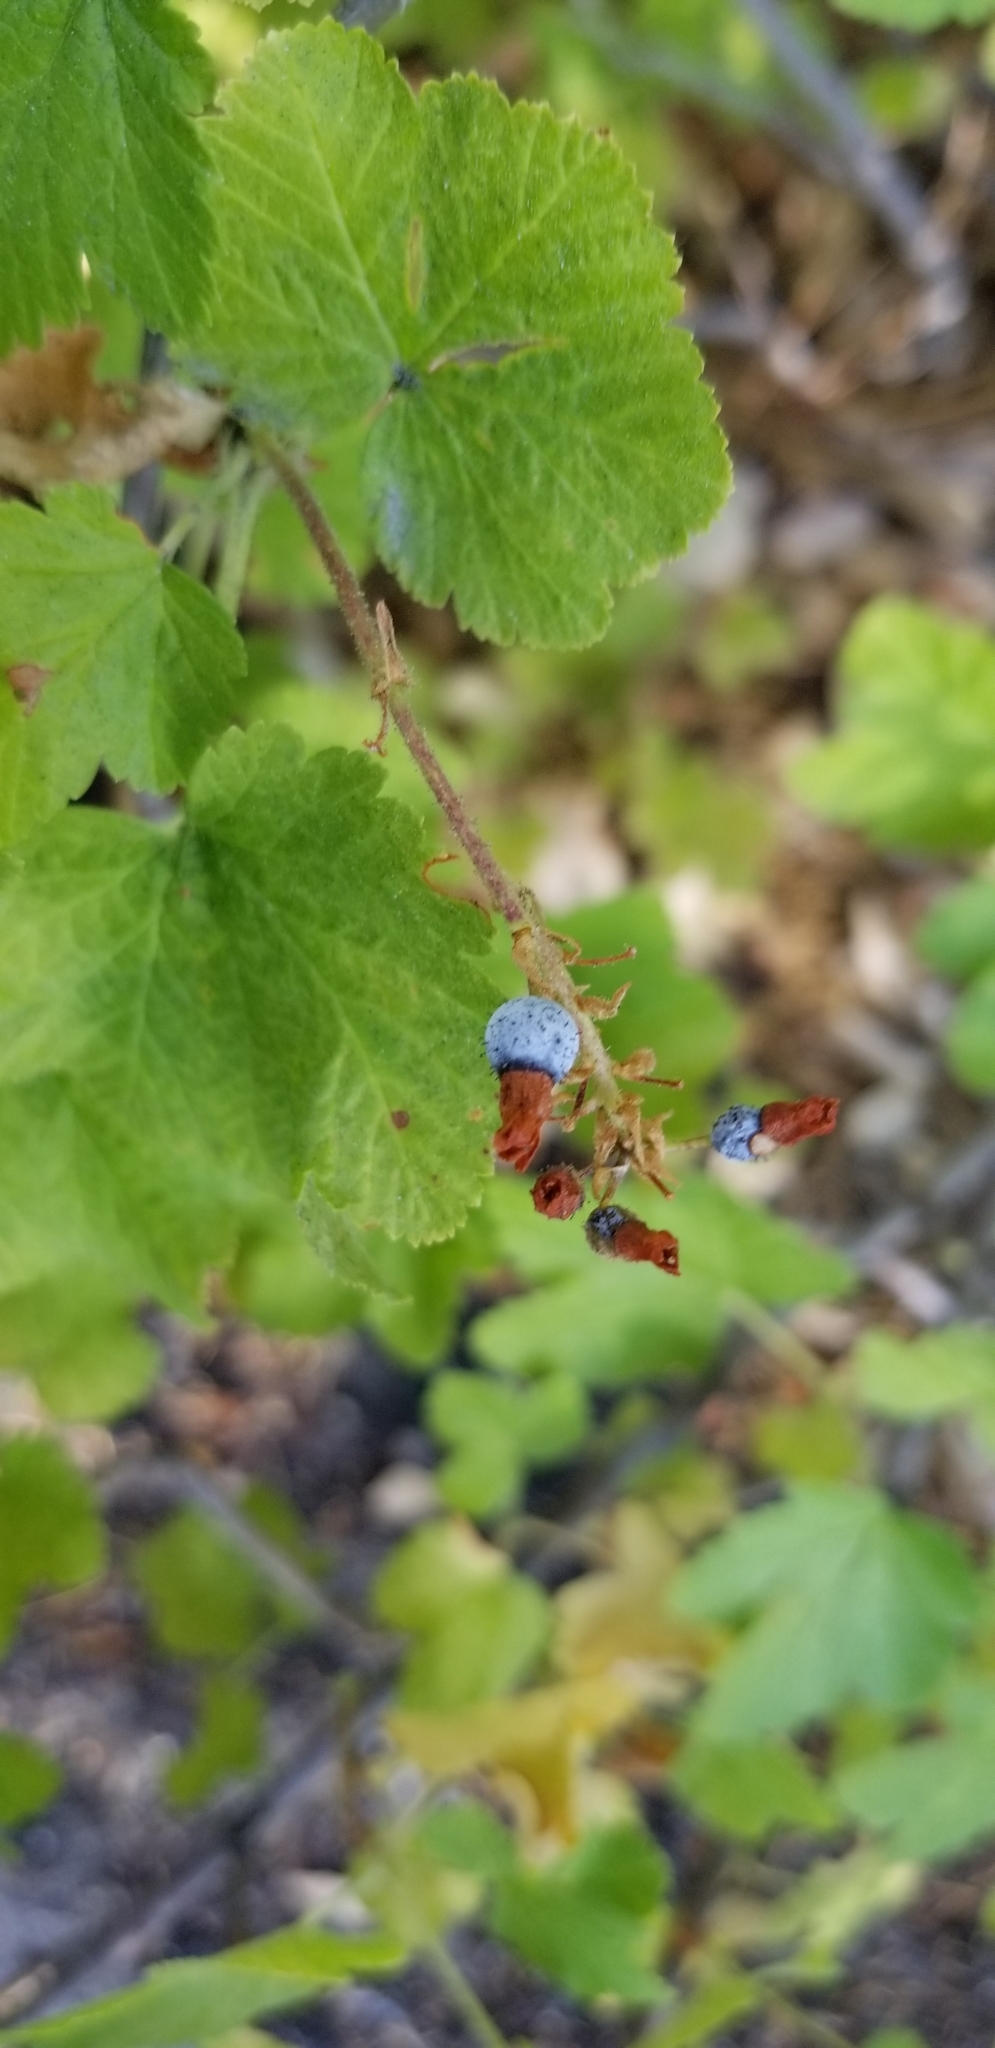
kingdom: Plantae
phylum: Tracheophyta
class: Magnoliopsida
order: Saxifragales
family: Grossulariaceae
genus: Ribes
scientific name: Ribes nevadense
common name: Mountain pink currant
